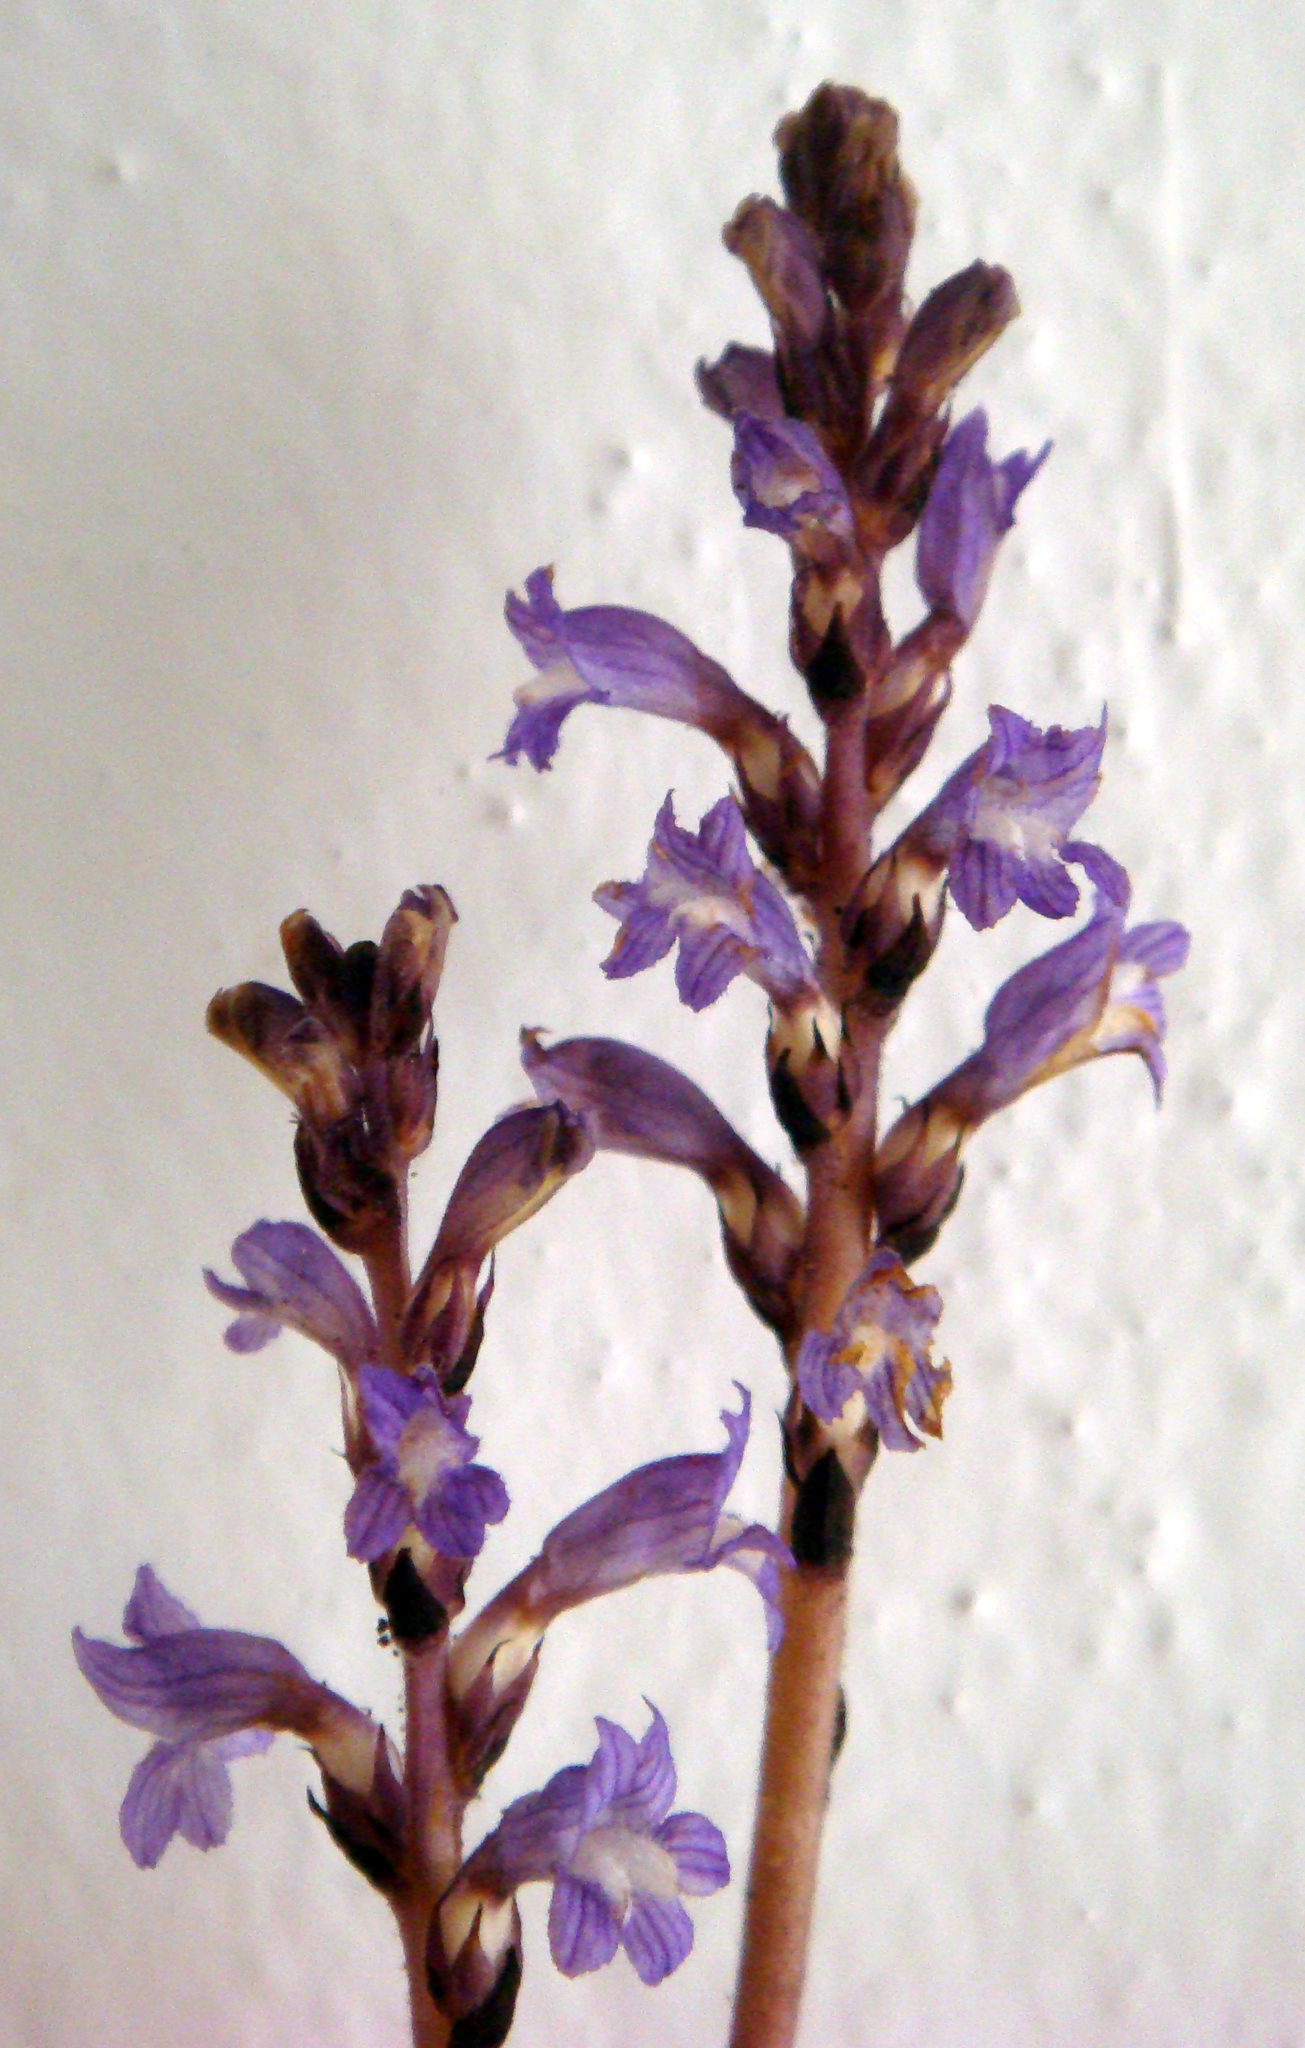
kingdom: Plantae
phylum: Tracheophyta
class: Magnoliopsida
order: Lamiales
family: Orobanchaceae
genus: Phelipanche
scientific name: Phelipanche mutelii
